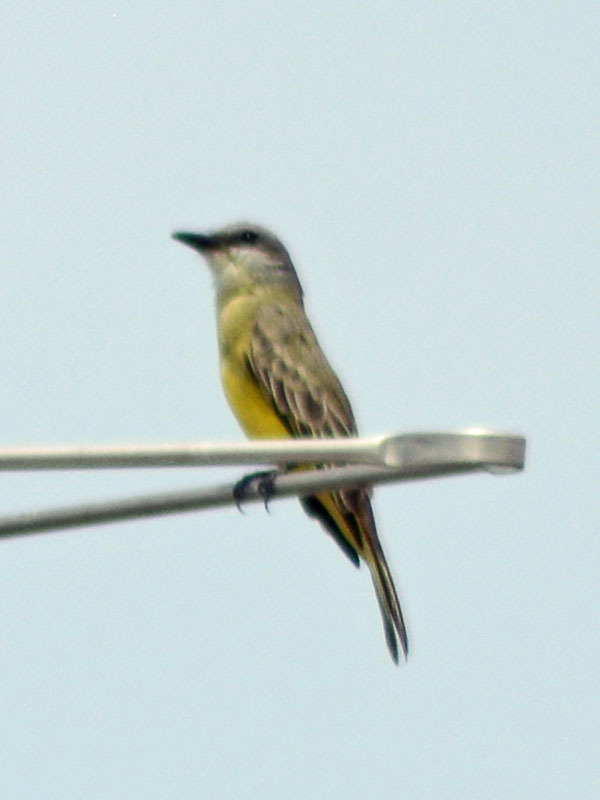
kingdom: Animalia
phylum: Chordata
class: Aves
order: Passeriformes
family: Tyrannidae
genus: Tyrannus
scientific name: Tyrannus melancholicus
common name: Tropical kingbird
